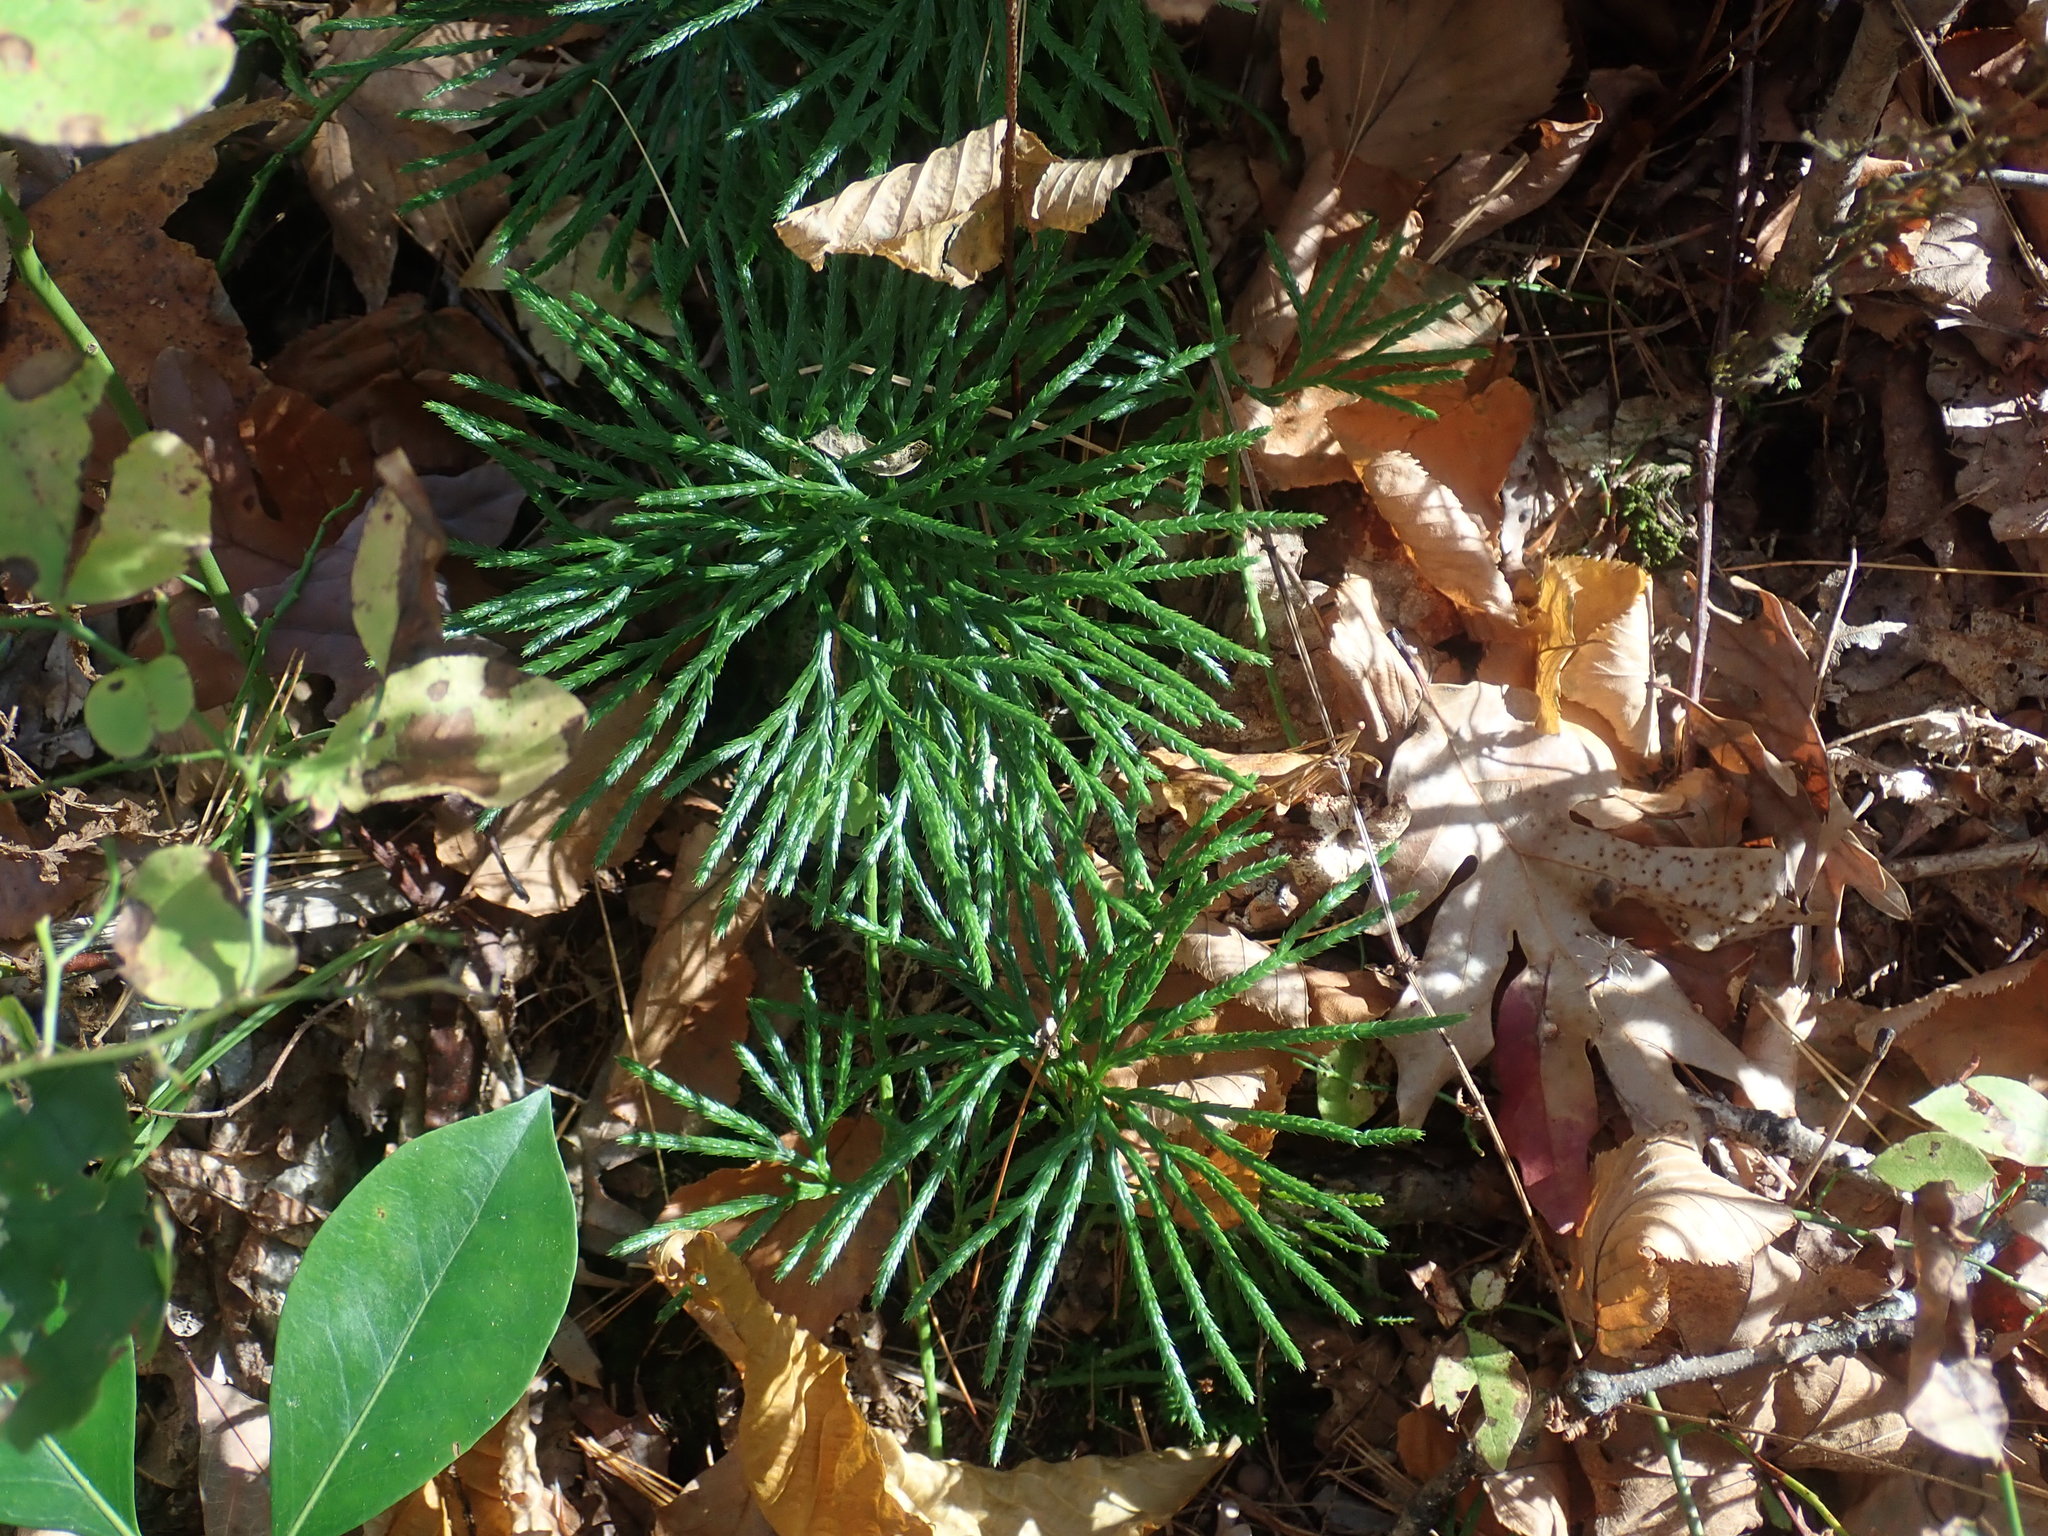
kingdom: Plantae
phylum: Tracheophyta
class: Lycopodiopsida
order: Lycopodiales
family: Lycopodiaceae
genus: Diphasiastrum
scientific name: Diphasiastrum digitatum
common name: Southern running-pine
